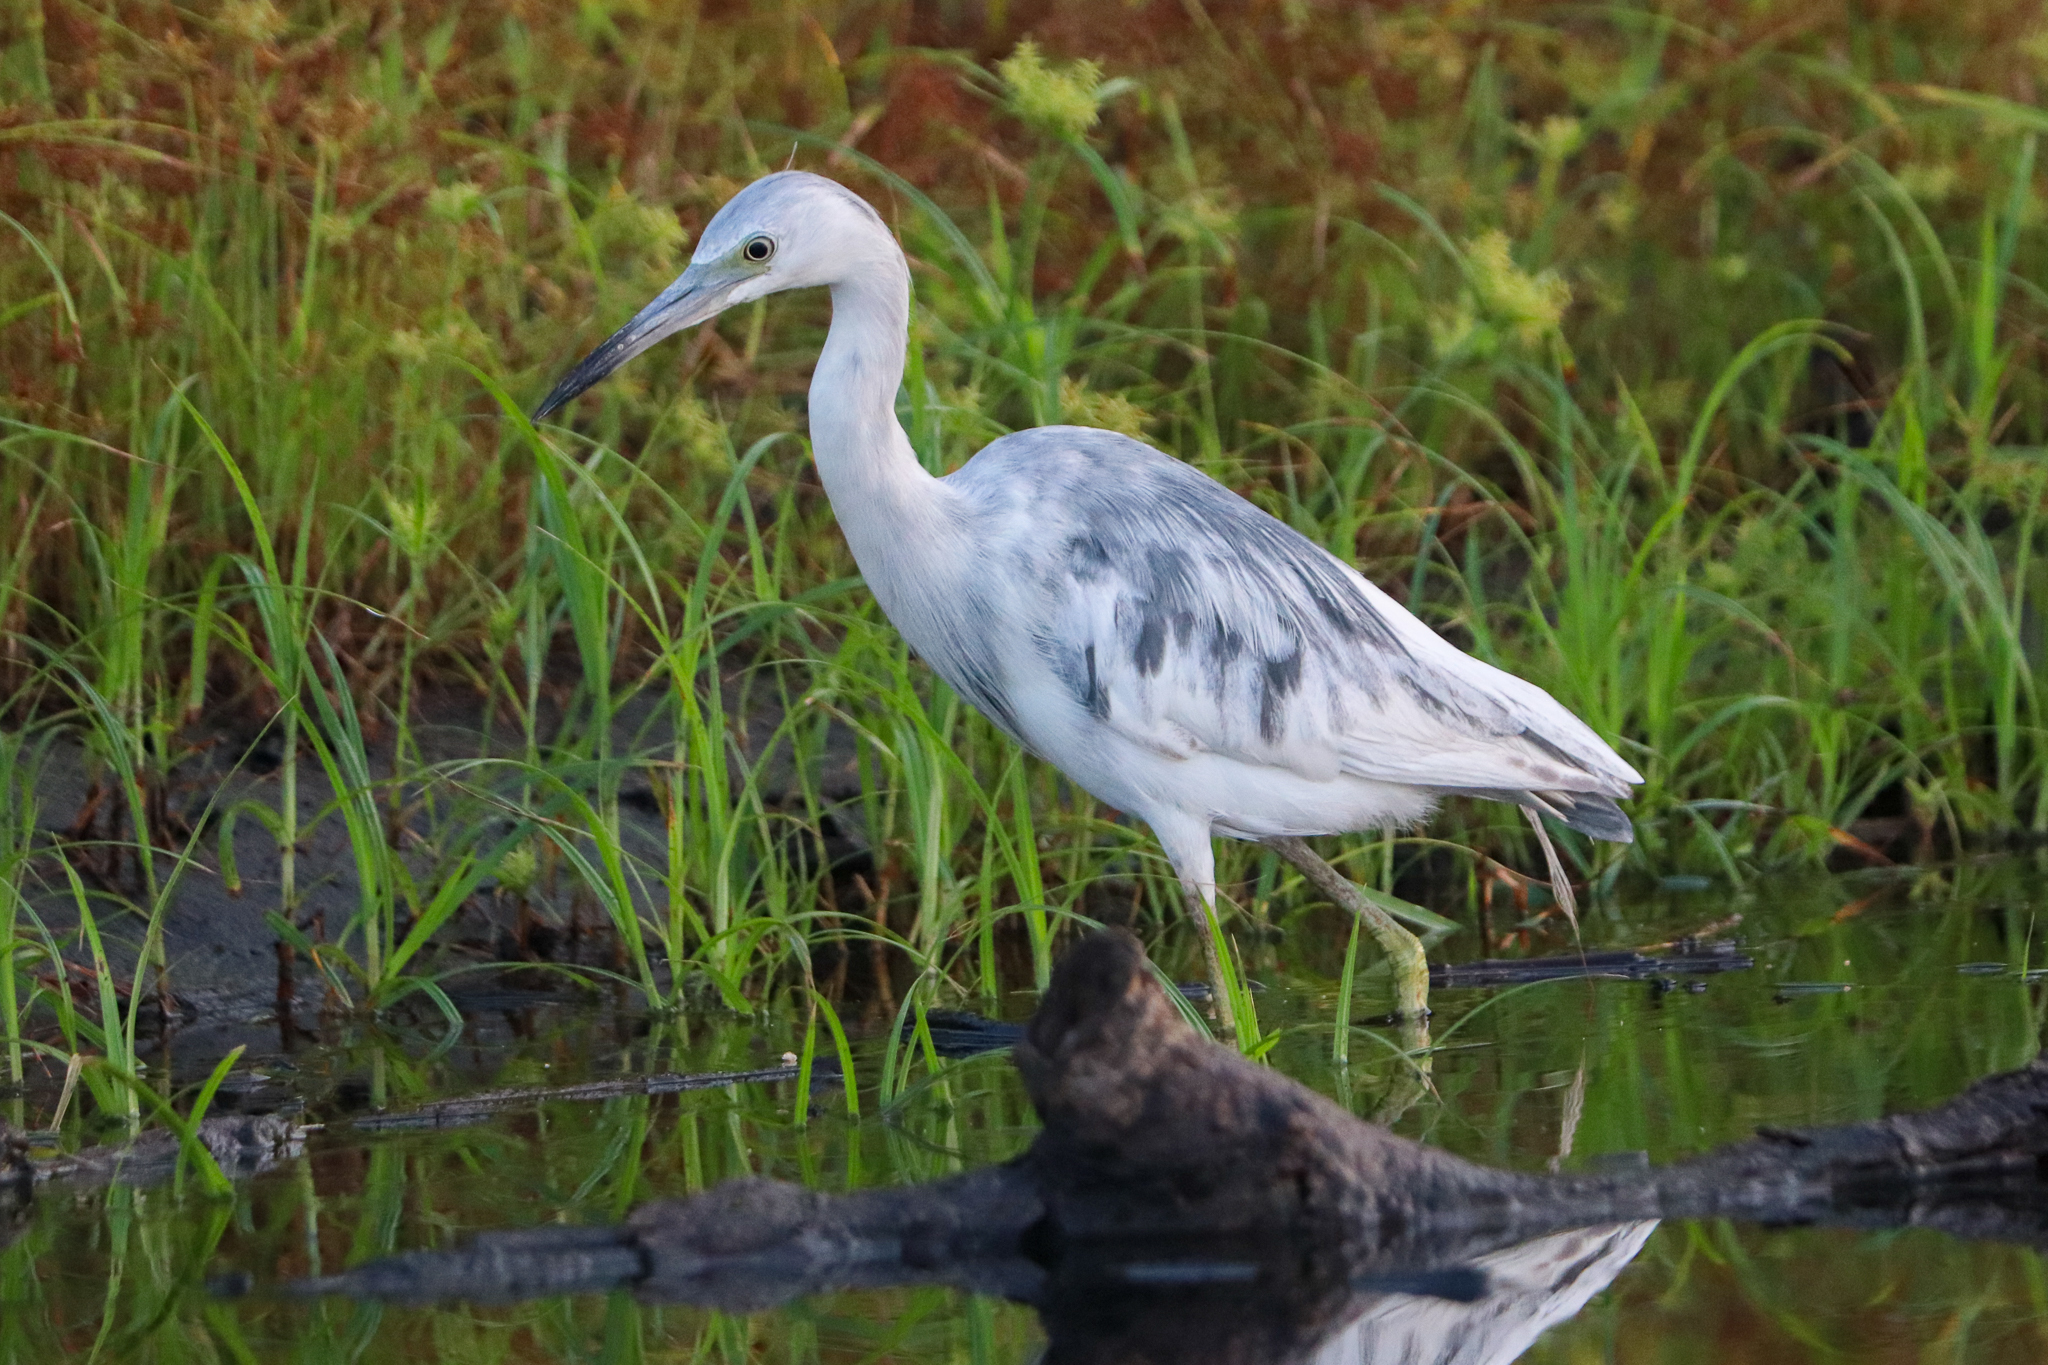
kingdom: Animalia
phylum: Chordata
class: Aves
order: Pelecaniformes
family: Ardeidae
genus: Egretta
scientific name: Egretta caerulea
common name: Little blue heron
